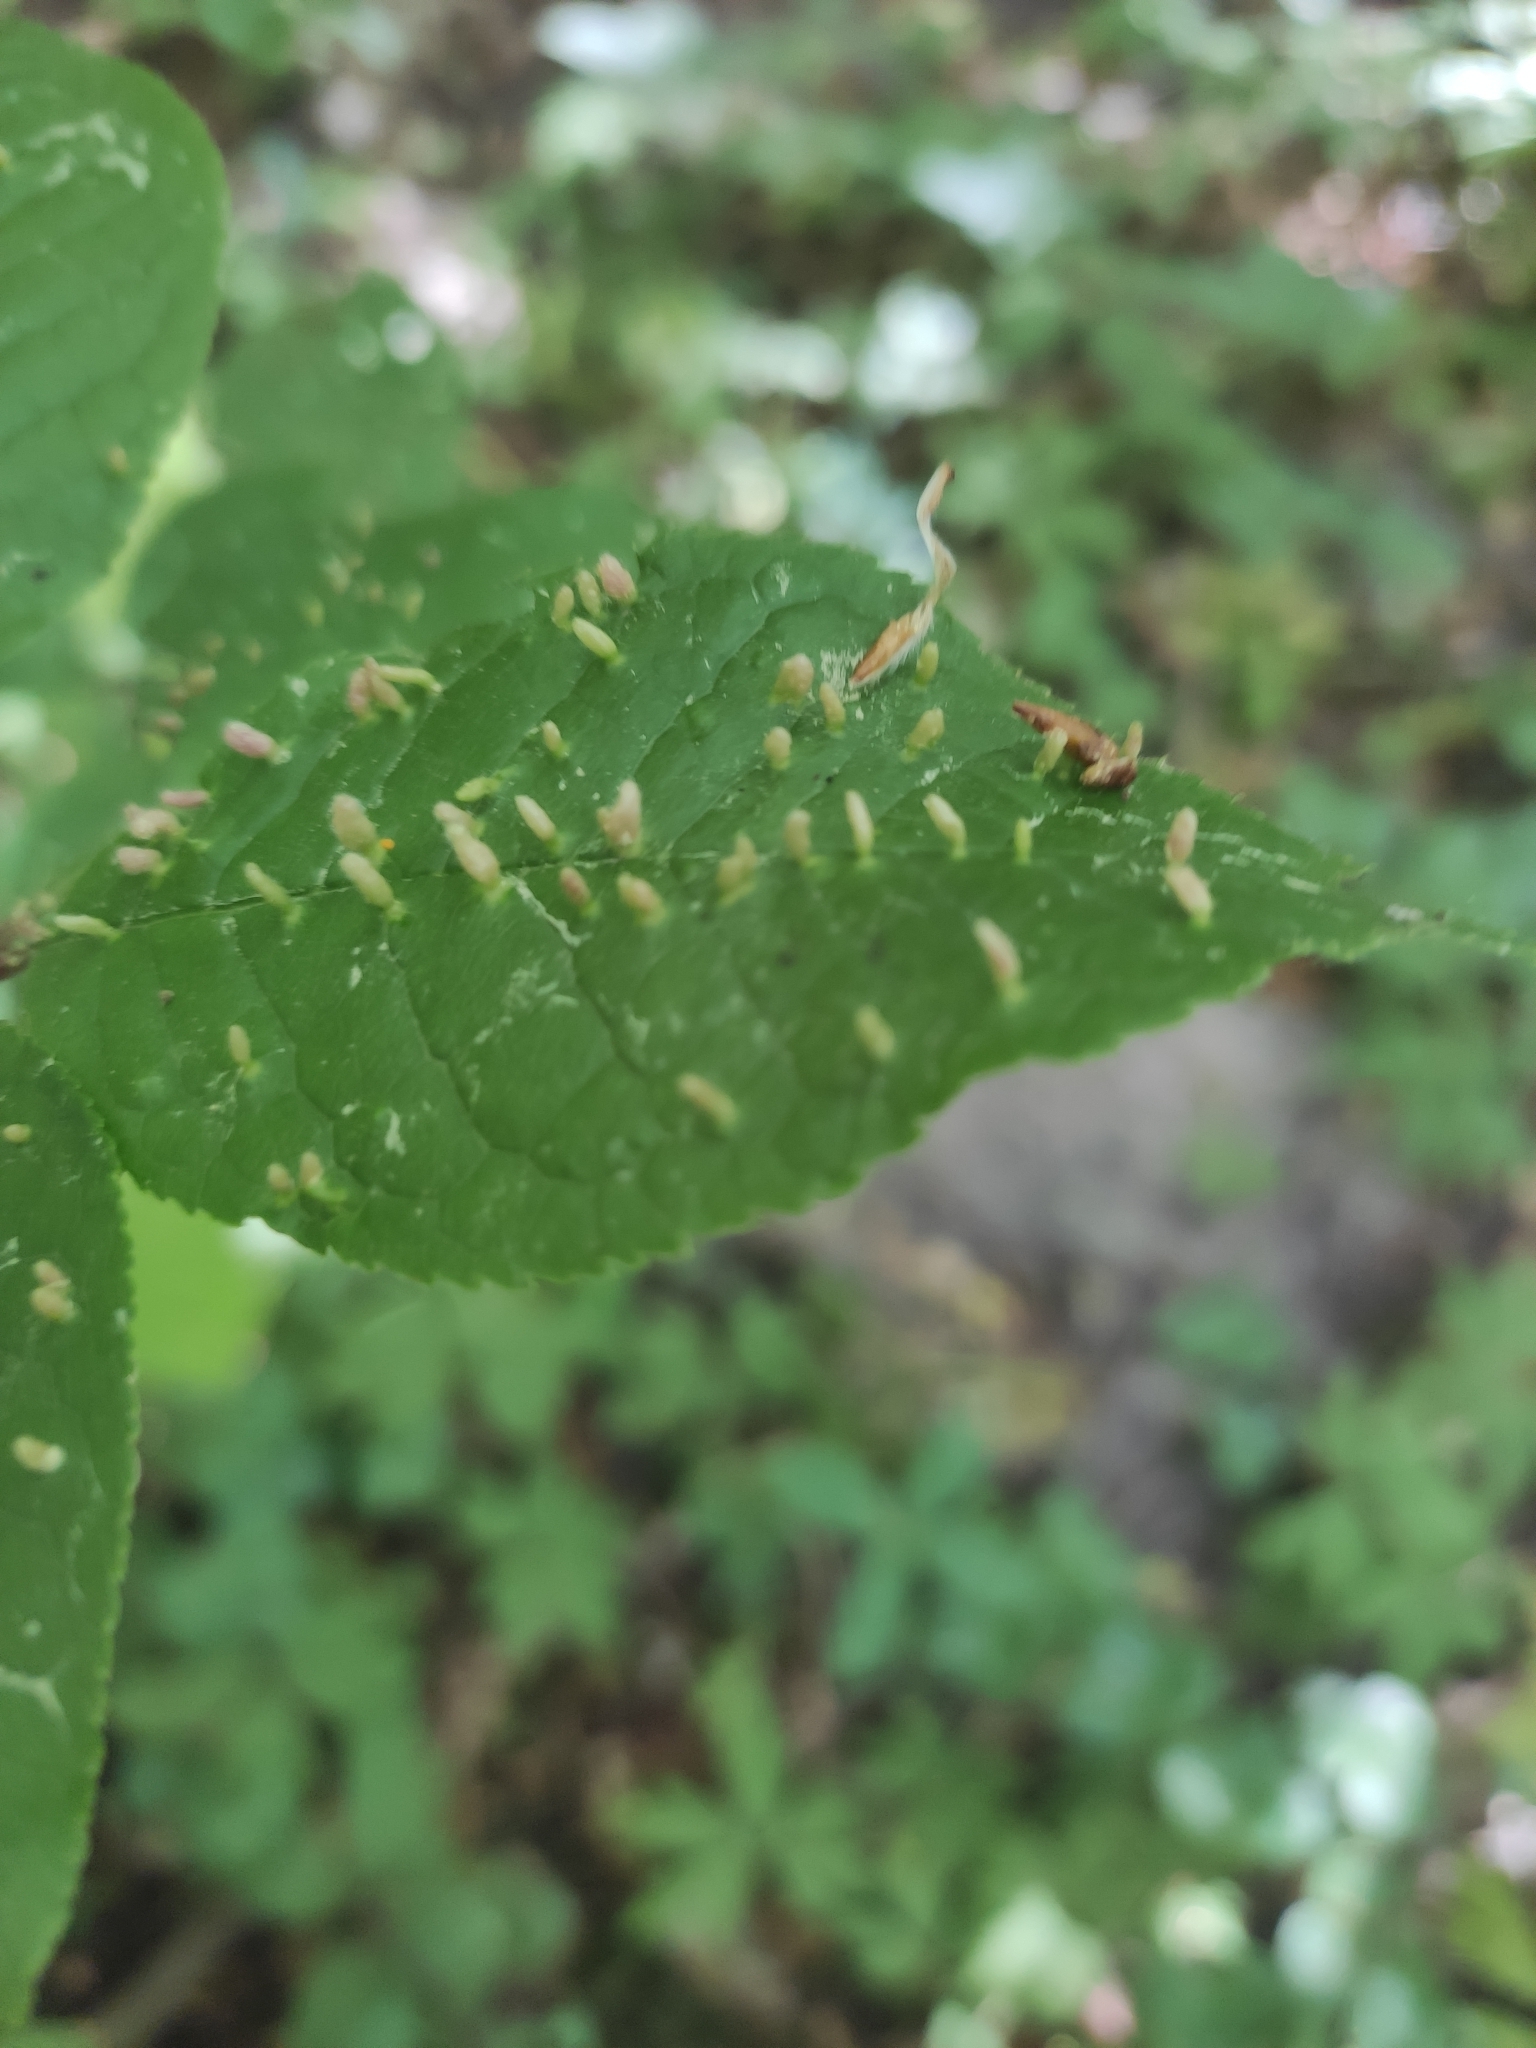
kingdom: Animalia
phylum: Arthropoda
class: Arachnida
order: Trombidiformes
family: Eriophyidae
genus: Phyllocoptes
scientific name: Phyllocoptes eupadi
